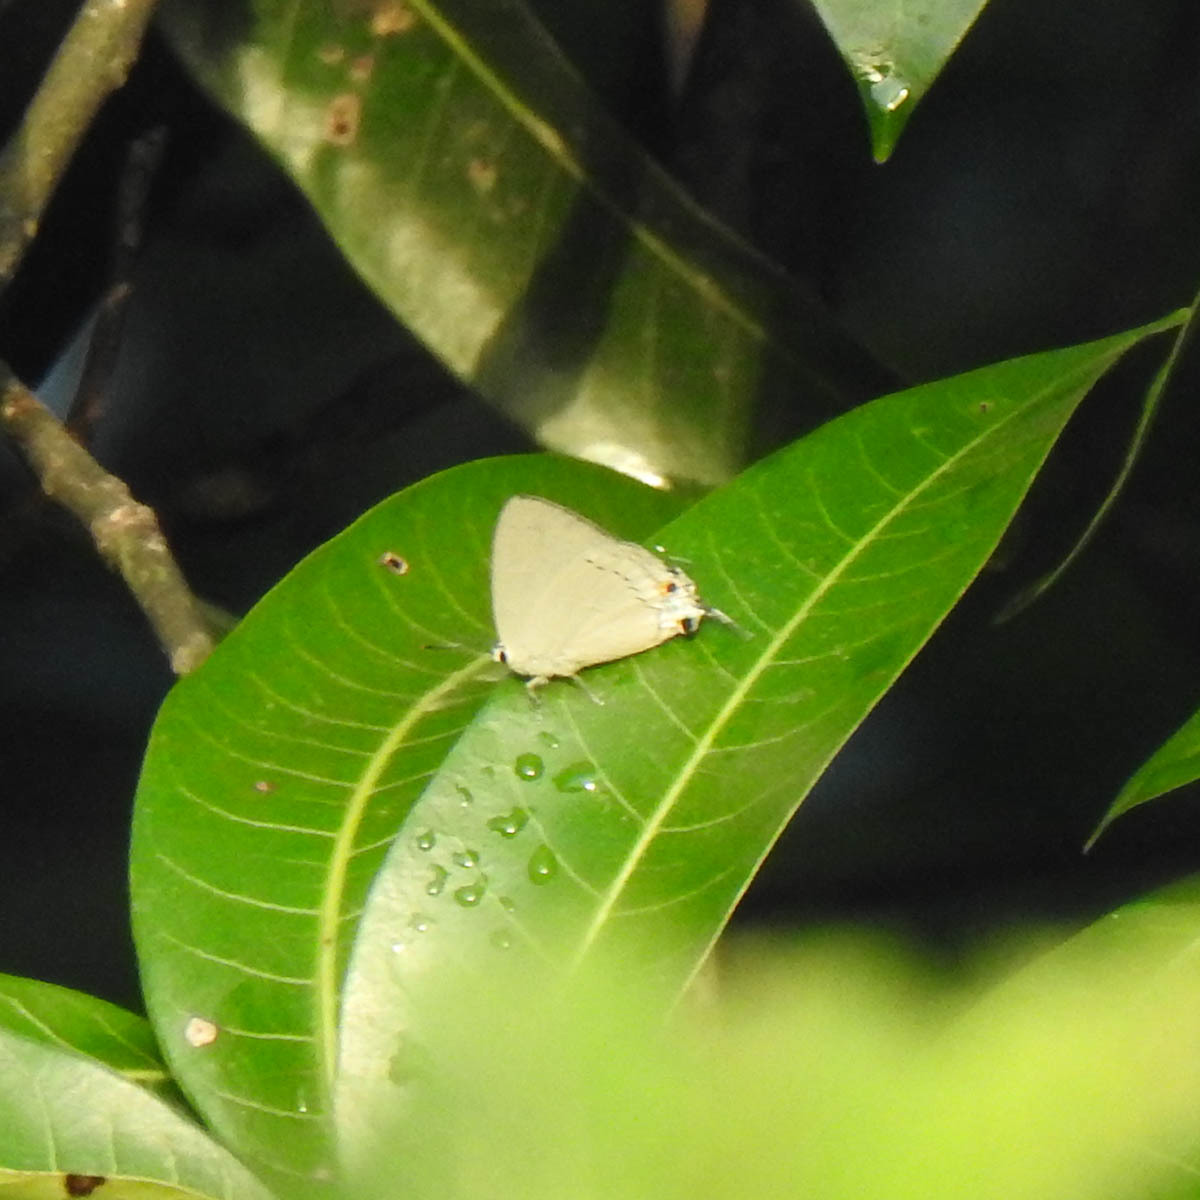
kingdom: Animalia
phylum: Arthropoda
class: Insecta
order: Lepidoptera
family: Lycaenidae
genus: Tajuria
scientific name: Tajuria cippus
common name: Peacock royal
